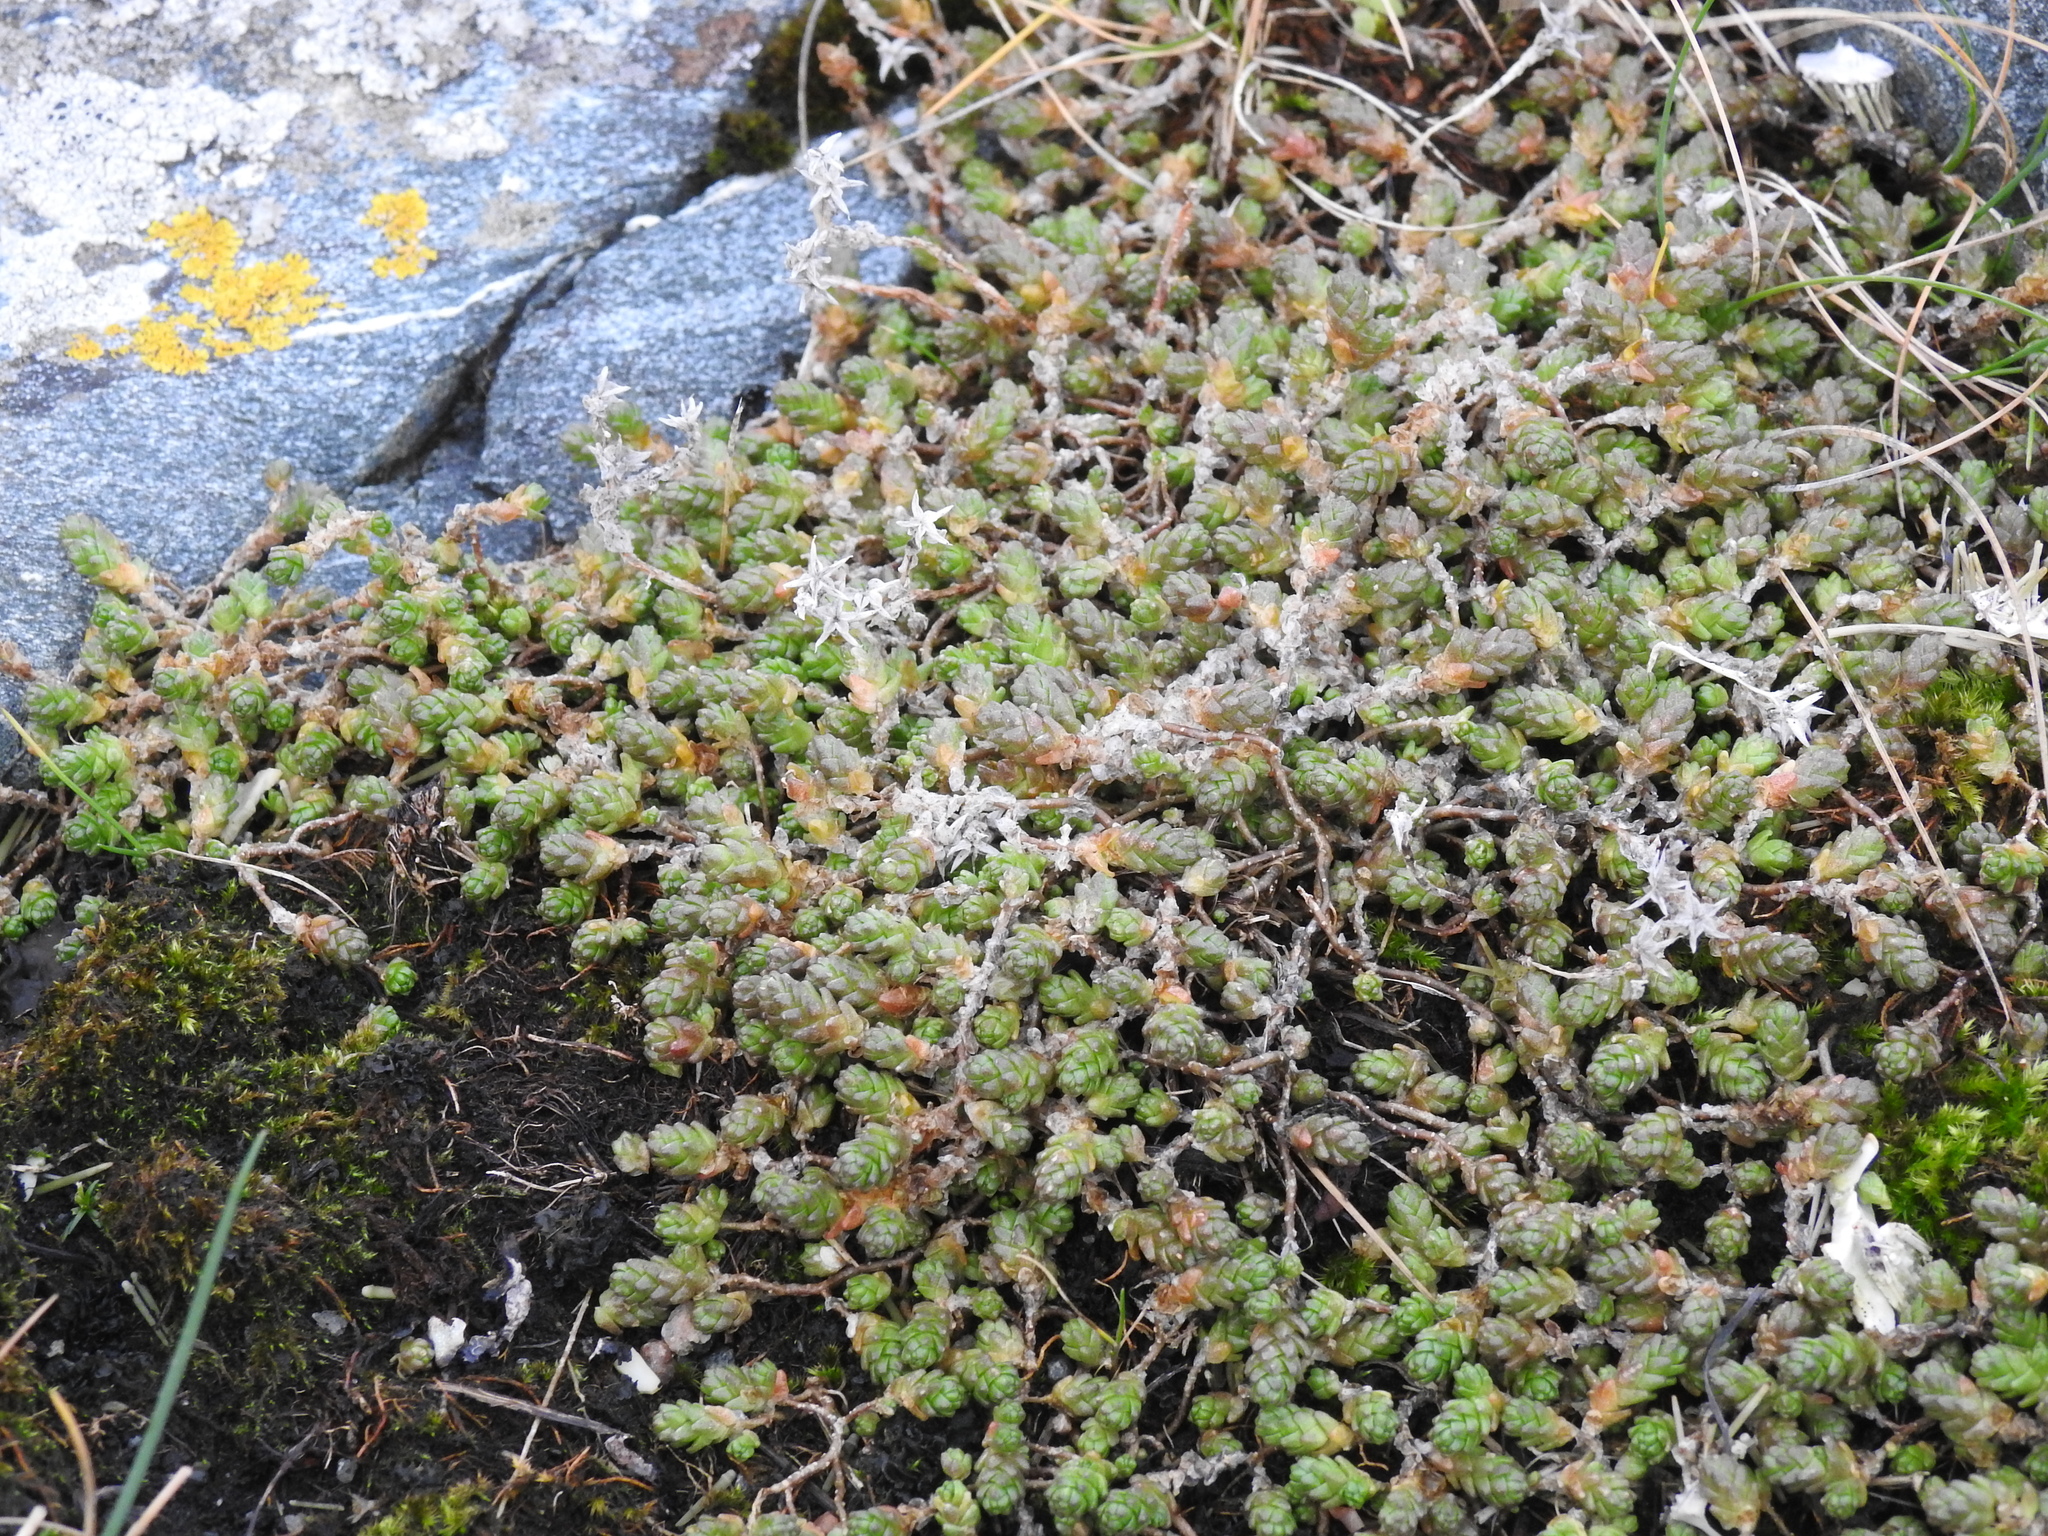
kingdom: Plantae
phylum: Tracheophyta
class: Magnoliopsida
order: Saxifragales
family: Crassulaceae
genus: Sedum
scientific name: Sedum acre
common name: Biting stonecrop
